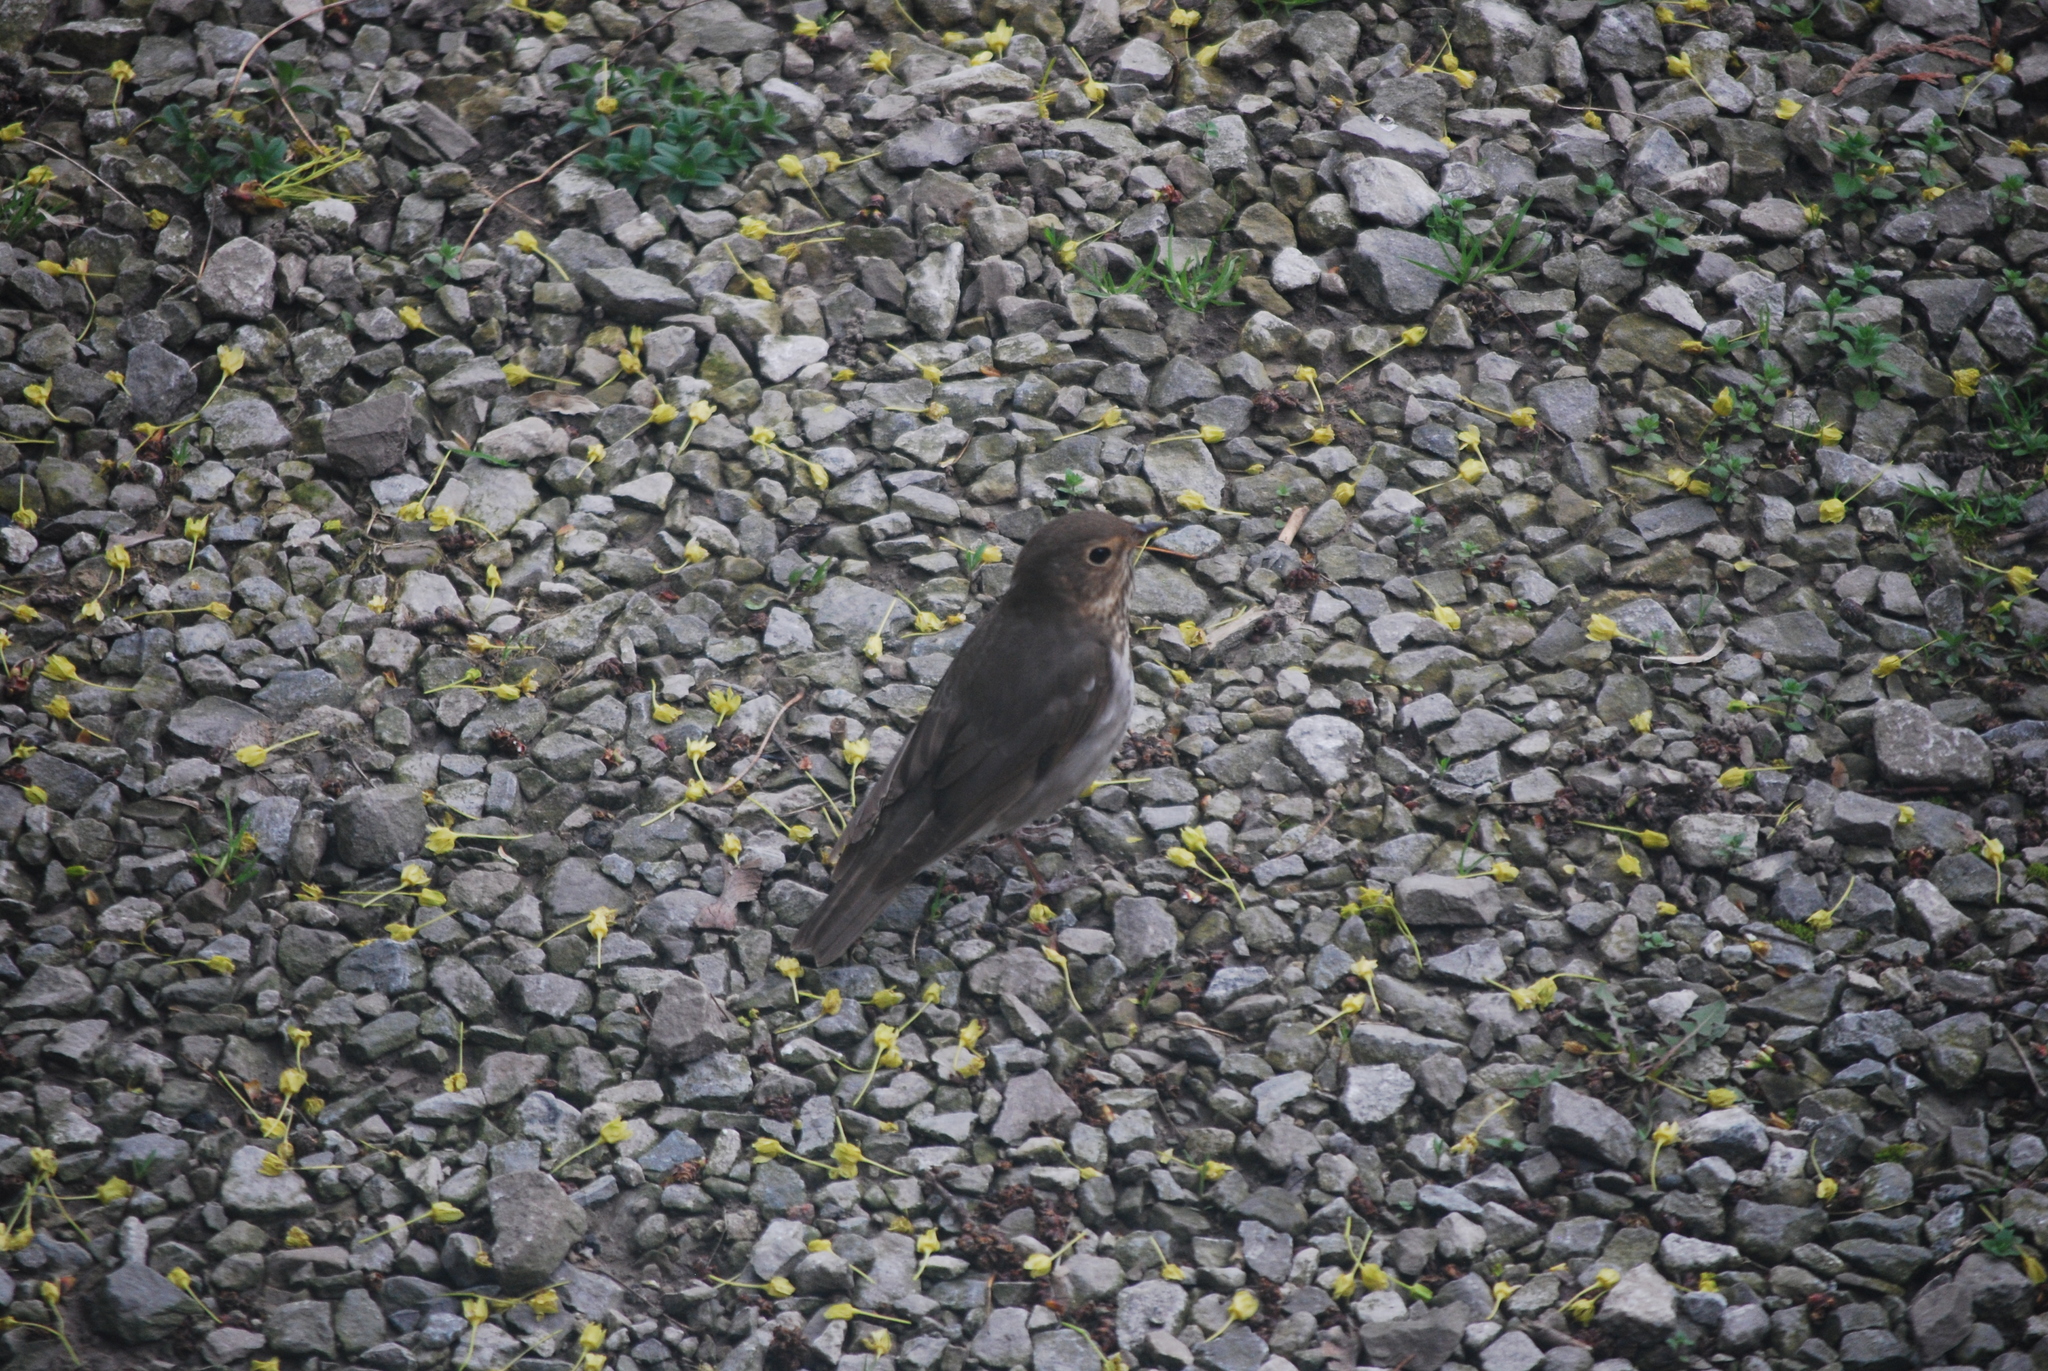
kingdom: Animalia
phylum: Chordata
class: Aves
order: Passeriformes
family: Turdidae
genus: Catharus
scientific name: Catharus ustulatus
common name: Swainson's thrush
